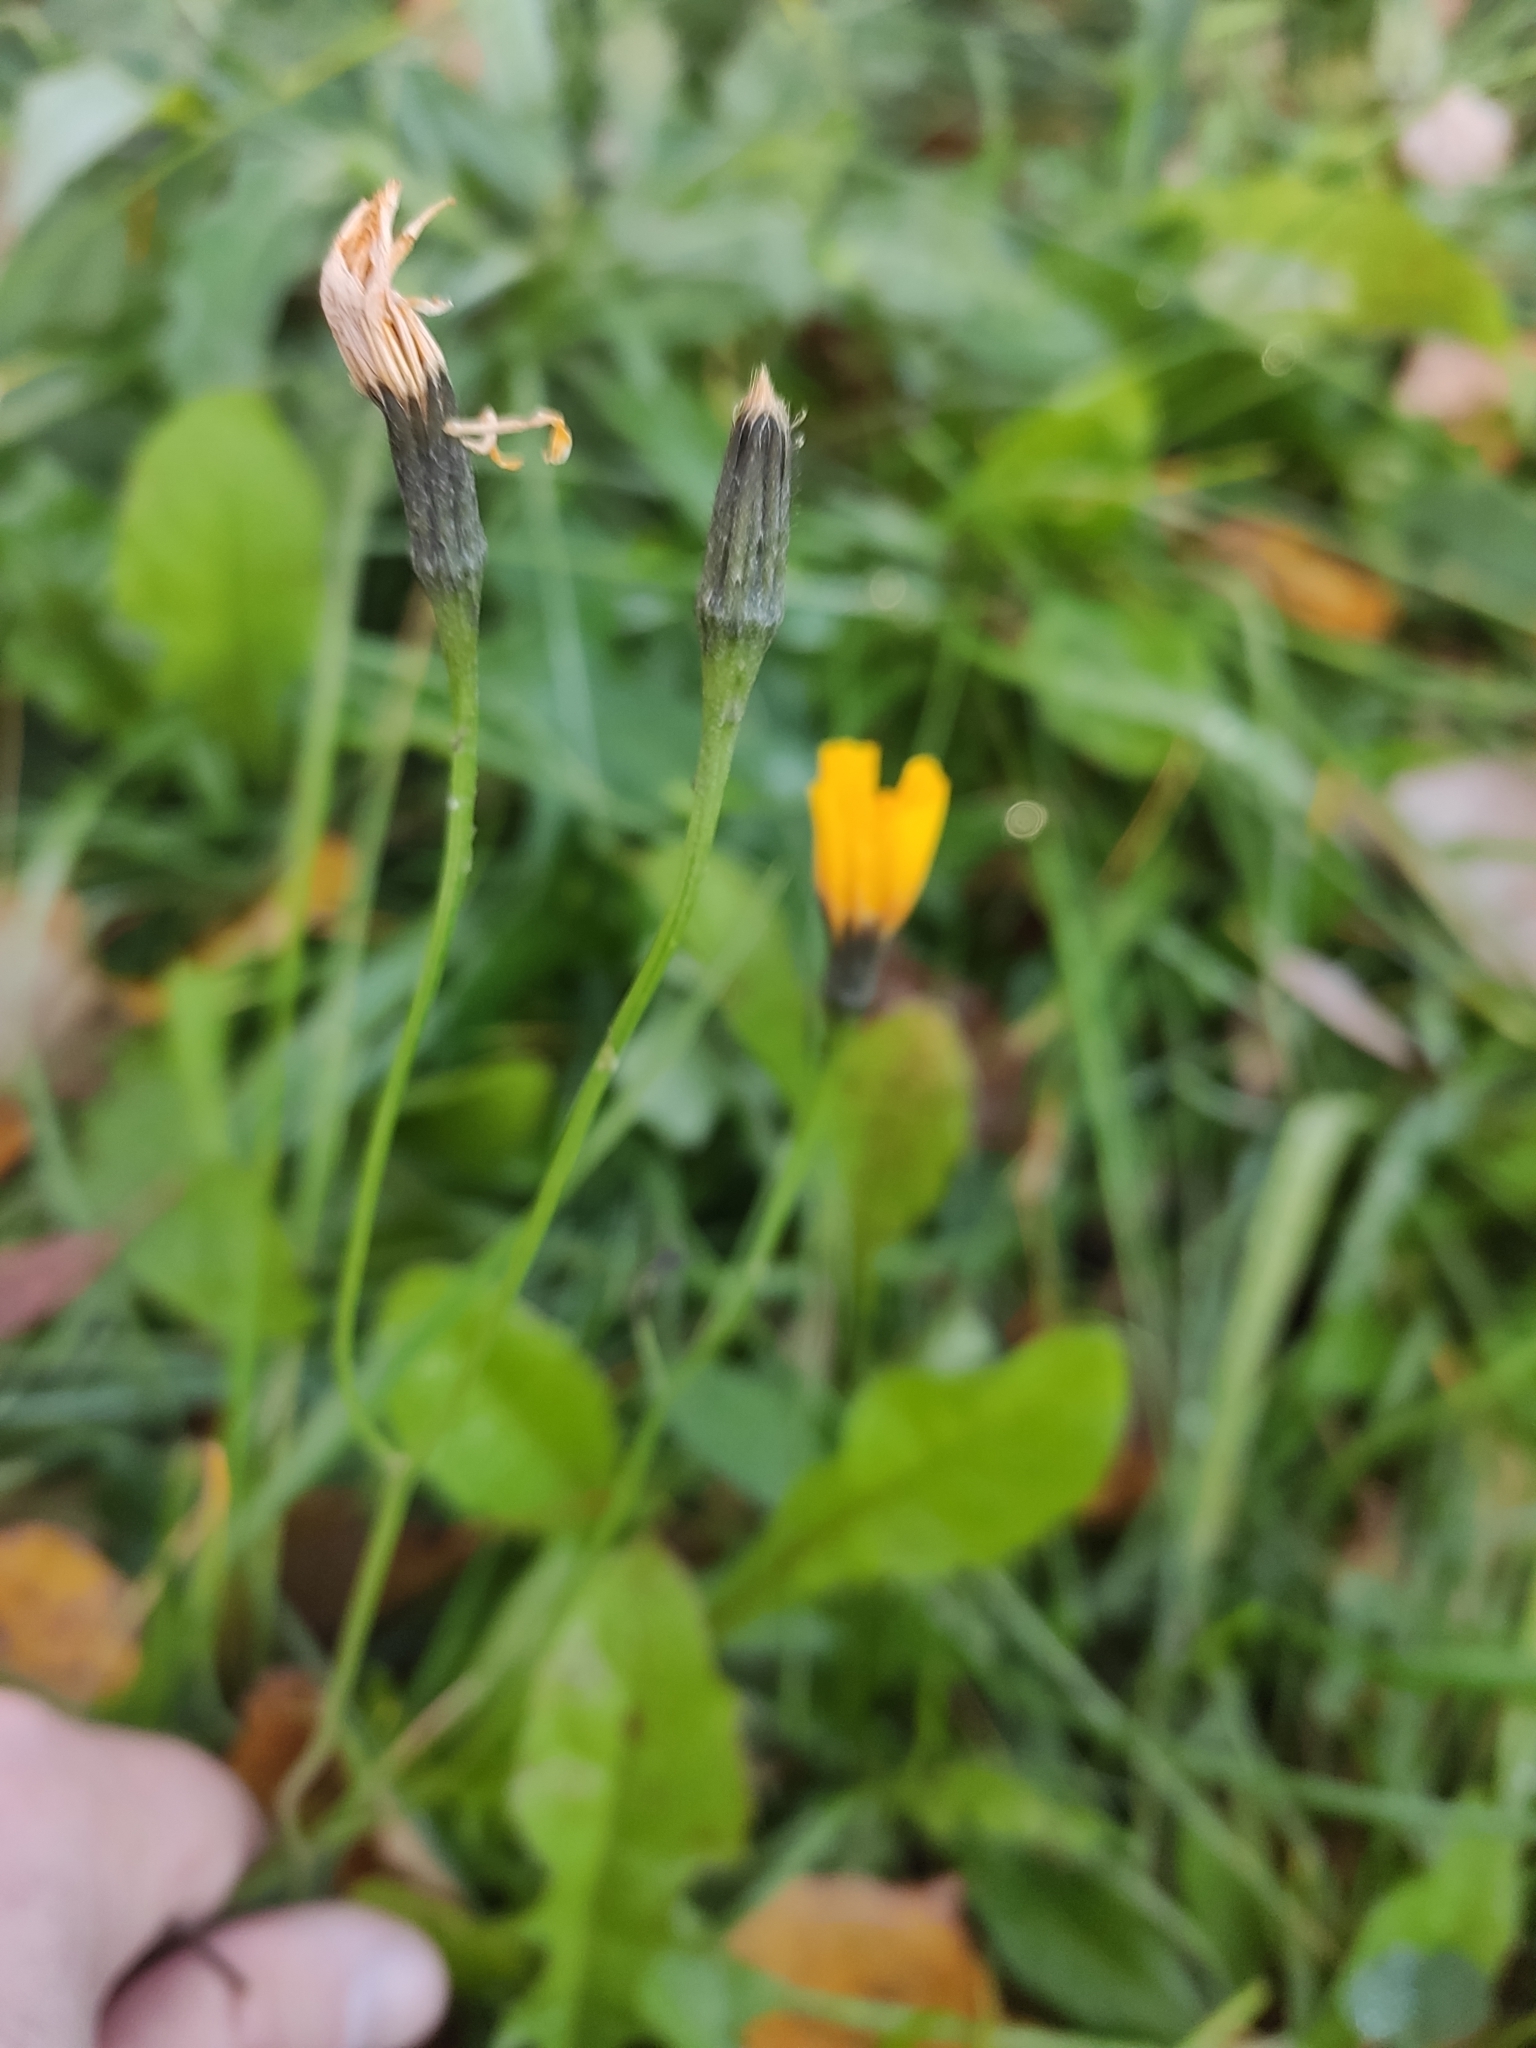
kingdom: Plantae
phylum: Tracheophyta
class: Magnoliopsida
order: Asterales
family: Asteraceae
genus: Scorzoneroides
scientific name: Scorzoneroides autumnalis
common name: Autumn hawkbit
